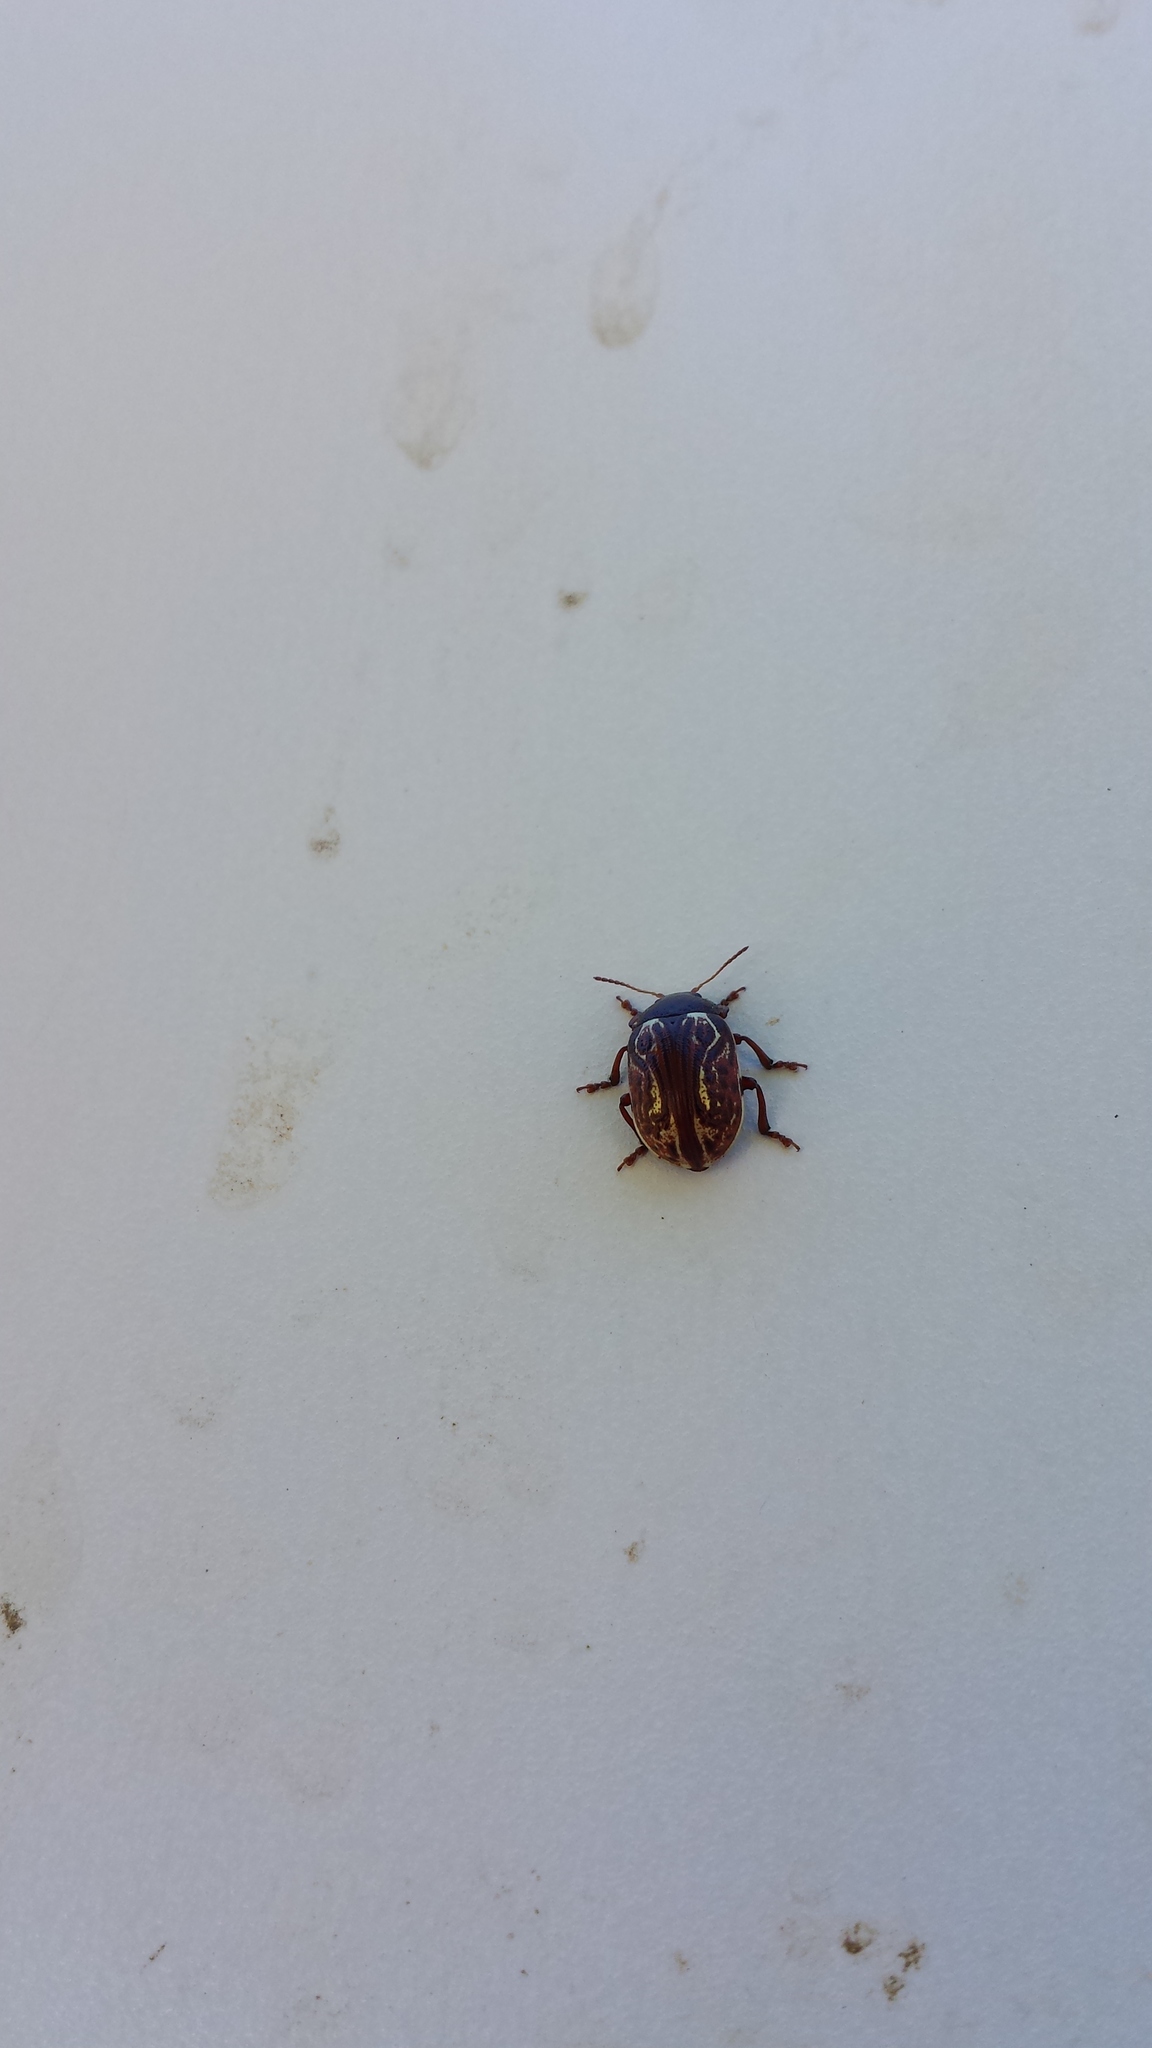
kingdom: Animalia
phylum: Arthropoda
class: Insecta
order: Coleoptera
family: Chrysomelidae
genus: Calligrapha
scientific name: Calligrapha alni
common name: Russet alder leaf beetle
